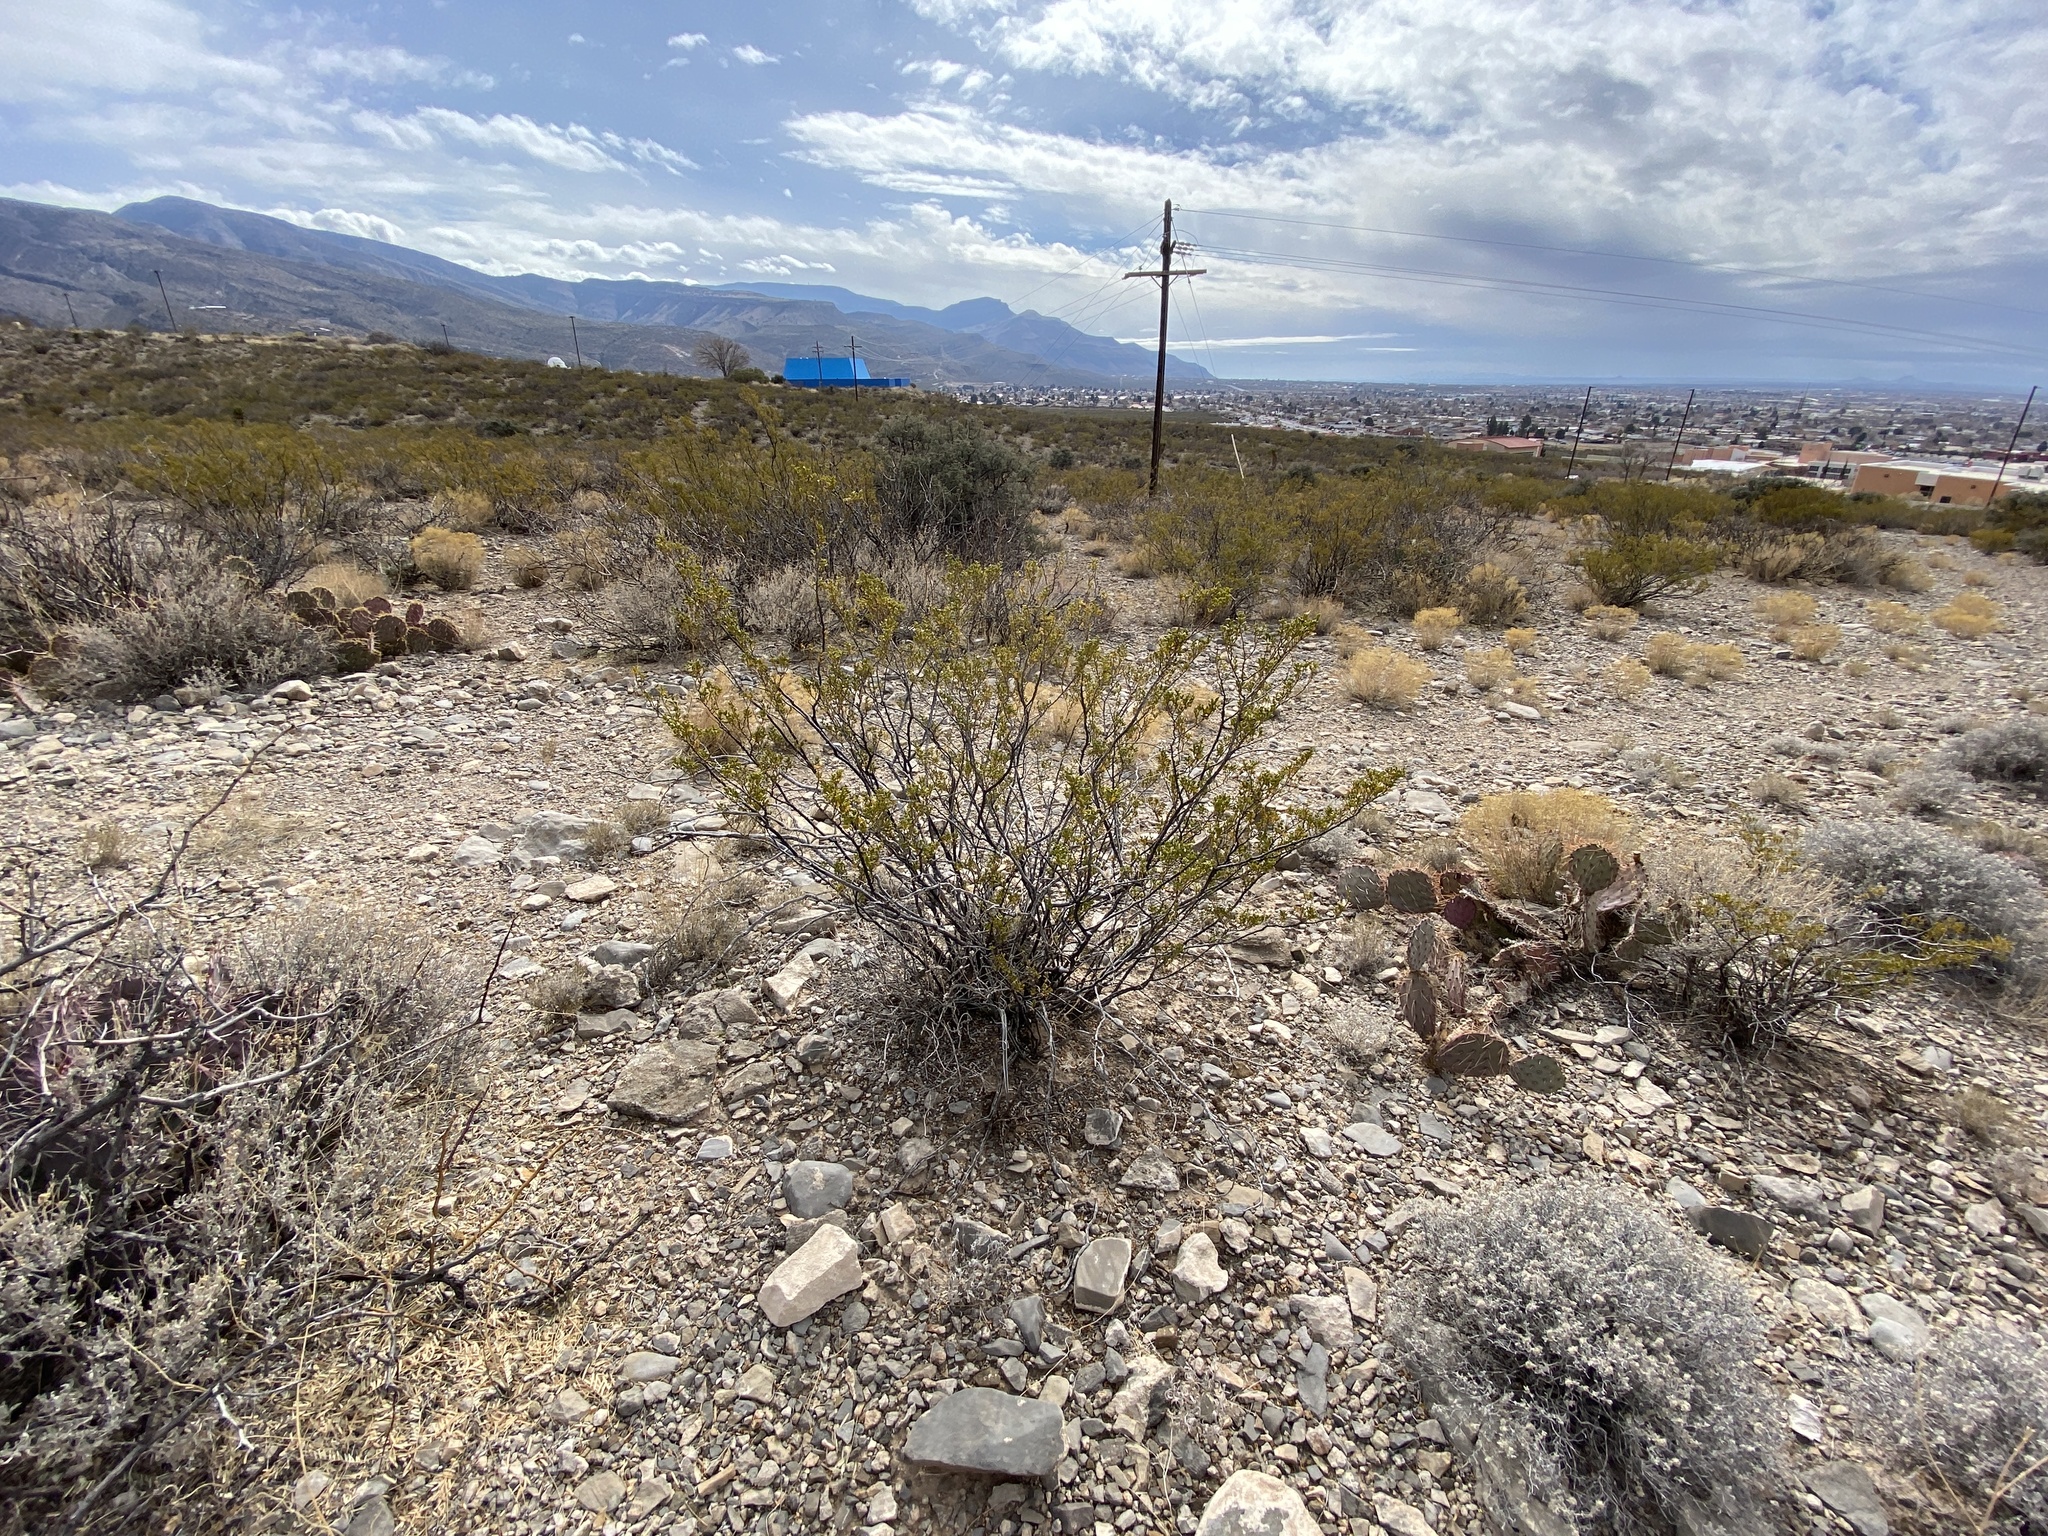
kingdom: Plantae
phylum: Tracheophyta
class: Magnoliopsida
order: Ericales
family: Fouquieriaceae
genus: Fouquieria
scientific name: Fouquieria splendens
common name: Vine-cactus
